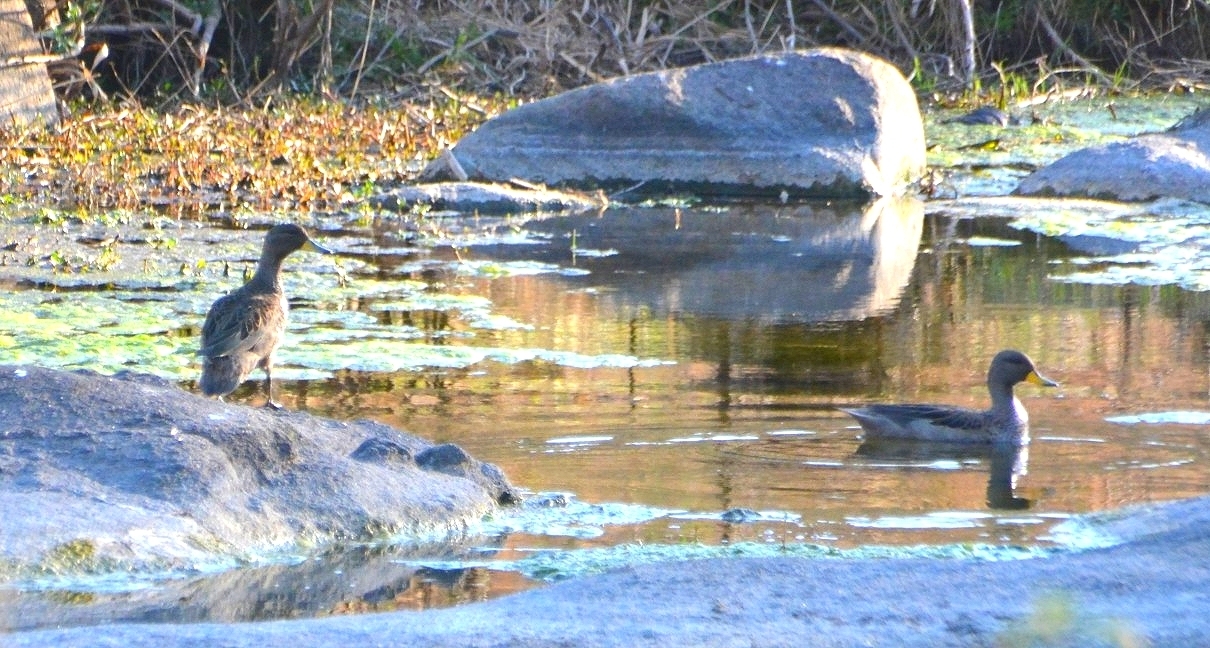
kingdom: Animalia
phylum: Chordata
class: Aves
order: Anseriformes
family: Anatidae
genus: Anas
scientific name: Anas flavirostris
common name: Yellow-billed teal
